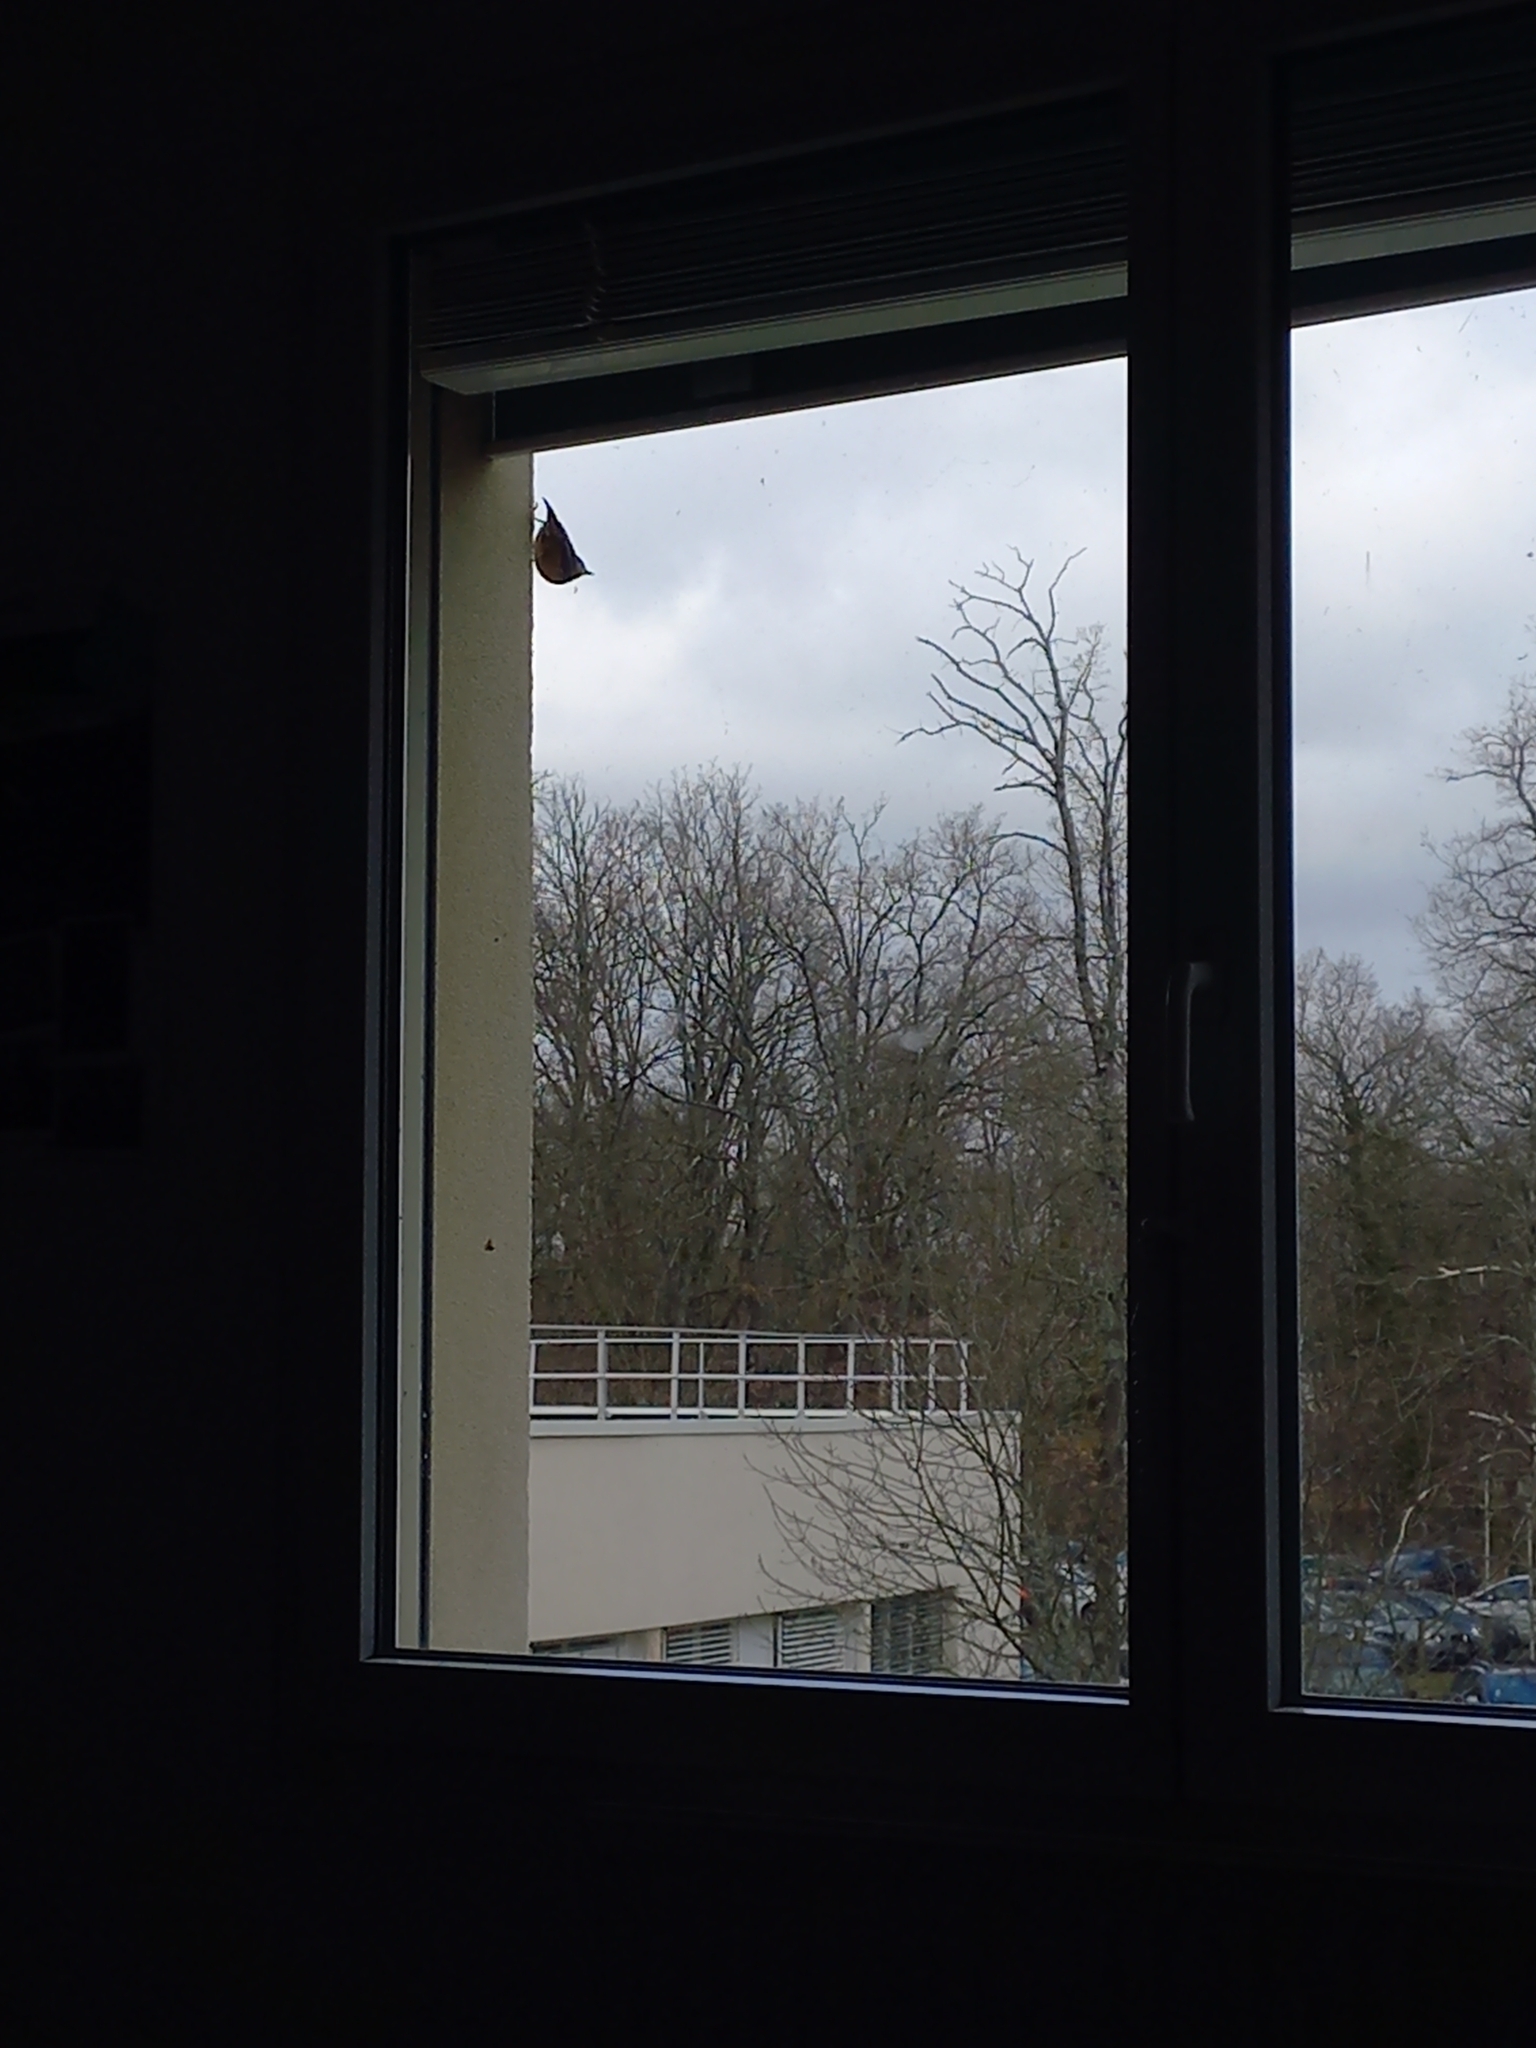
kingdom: Animalia
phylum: Chordata
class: Aves
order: Passeriformes
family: Sittidae
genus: Sitta
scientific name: Sitta europaea
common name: Eurasian nuthatch
